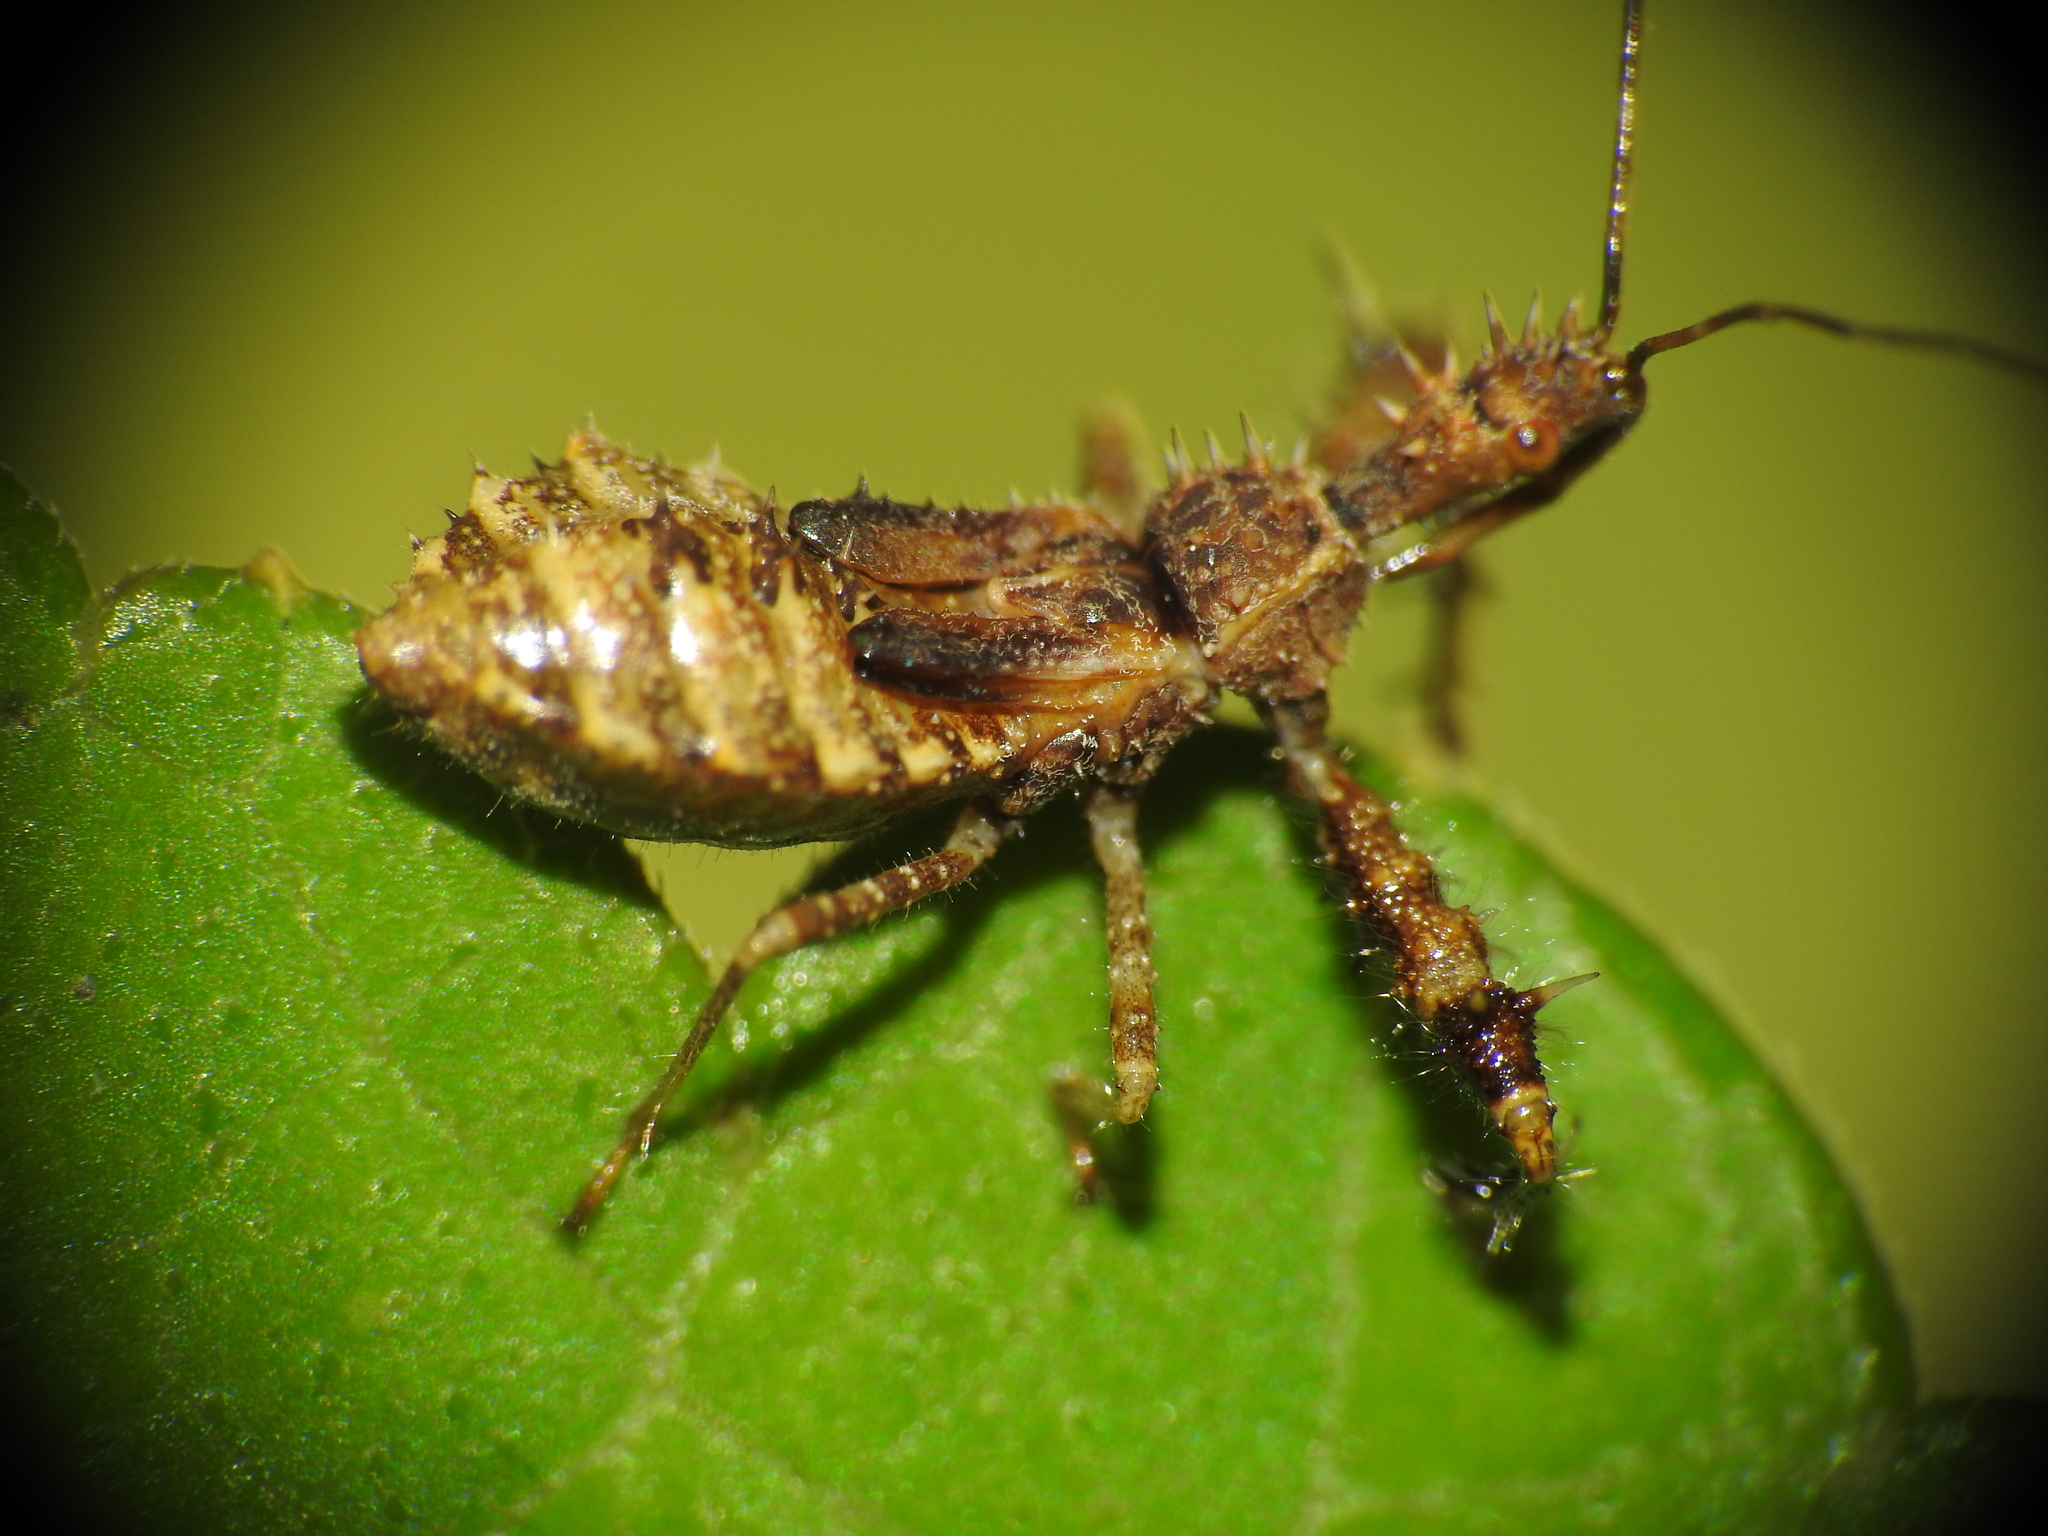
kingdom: Animalia
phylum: Arthropoda
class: Insecta
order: Hemiptera
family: Reduviidae
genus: Sinea
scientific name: Sinea spinipes
